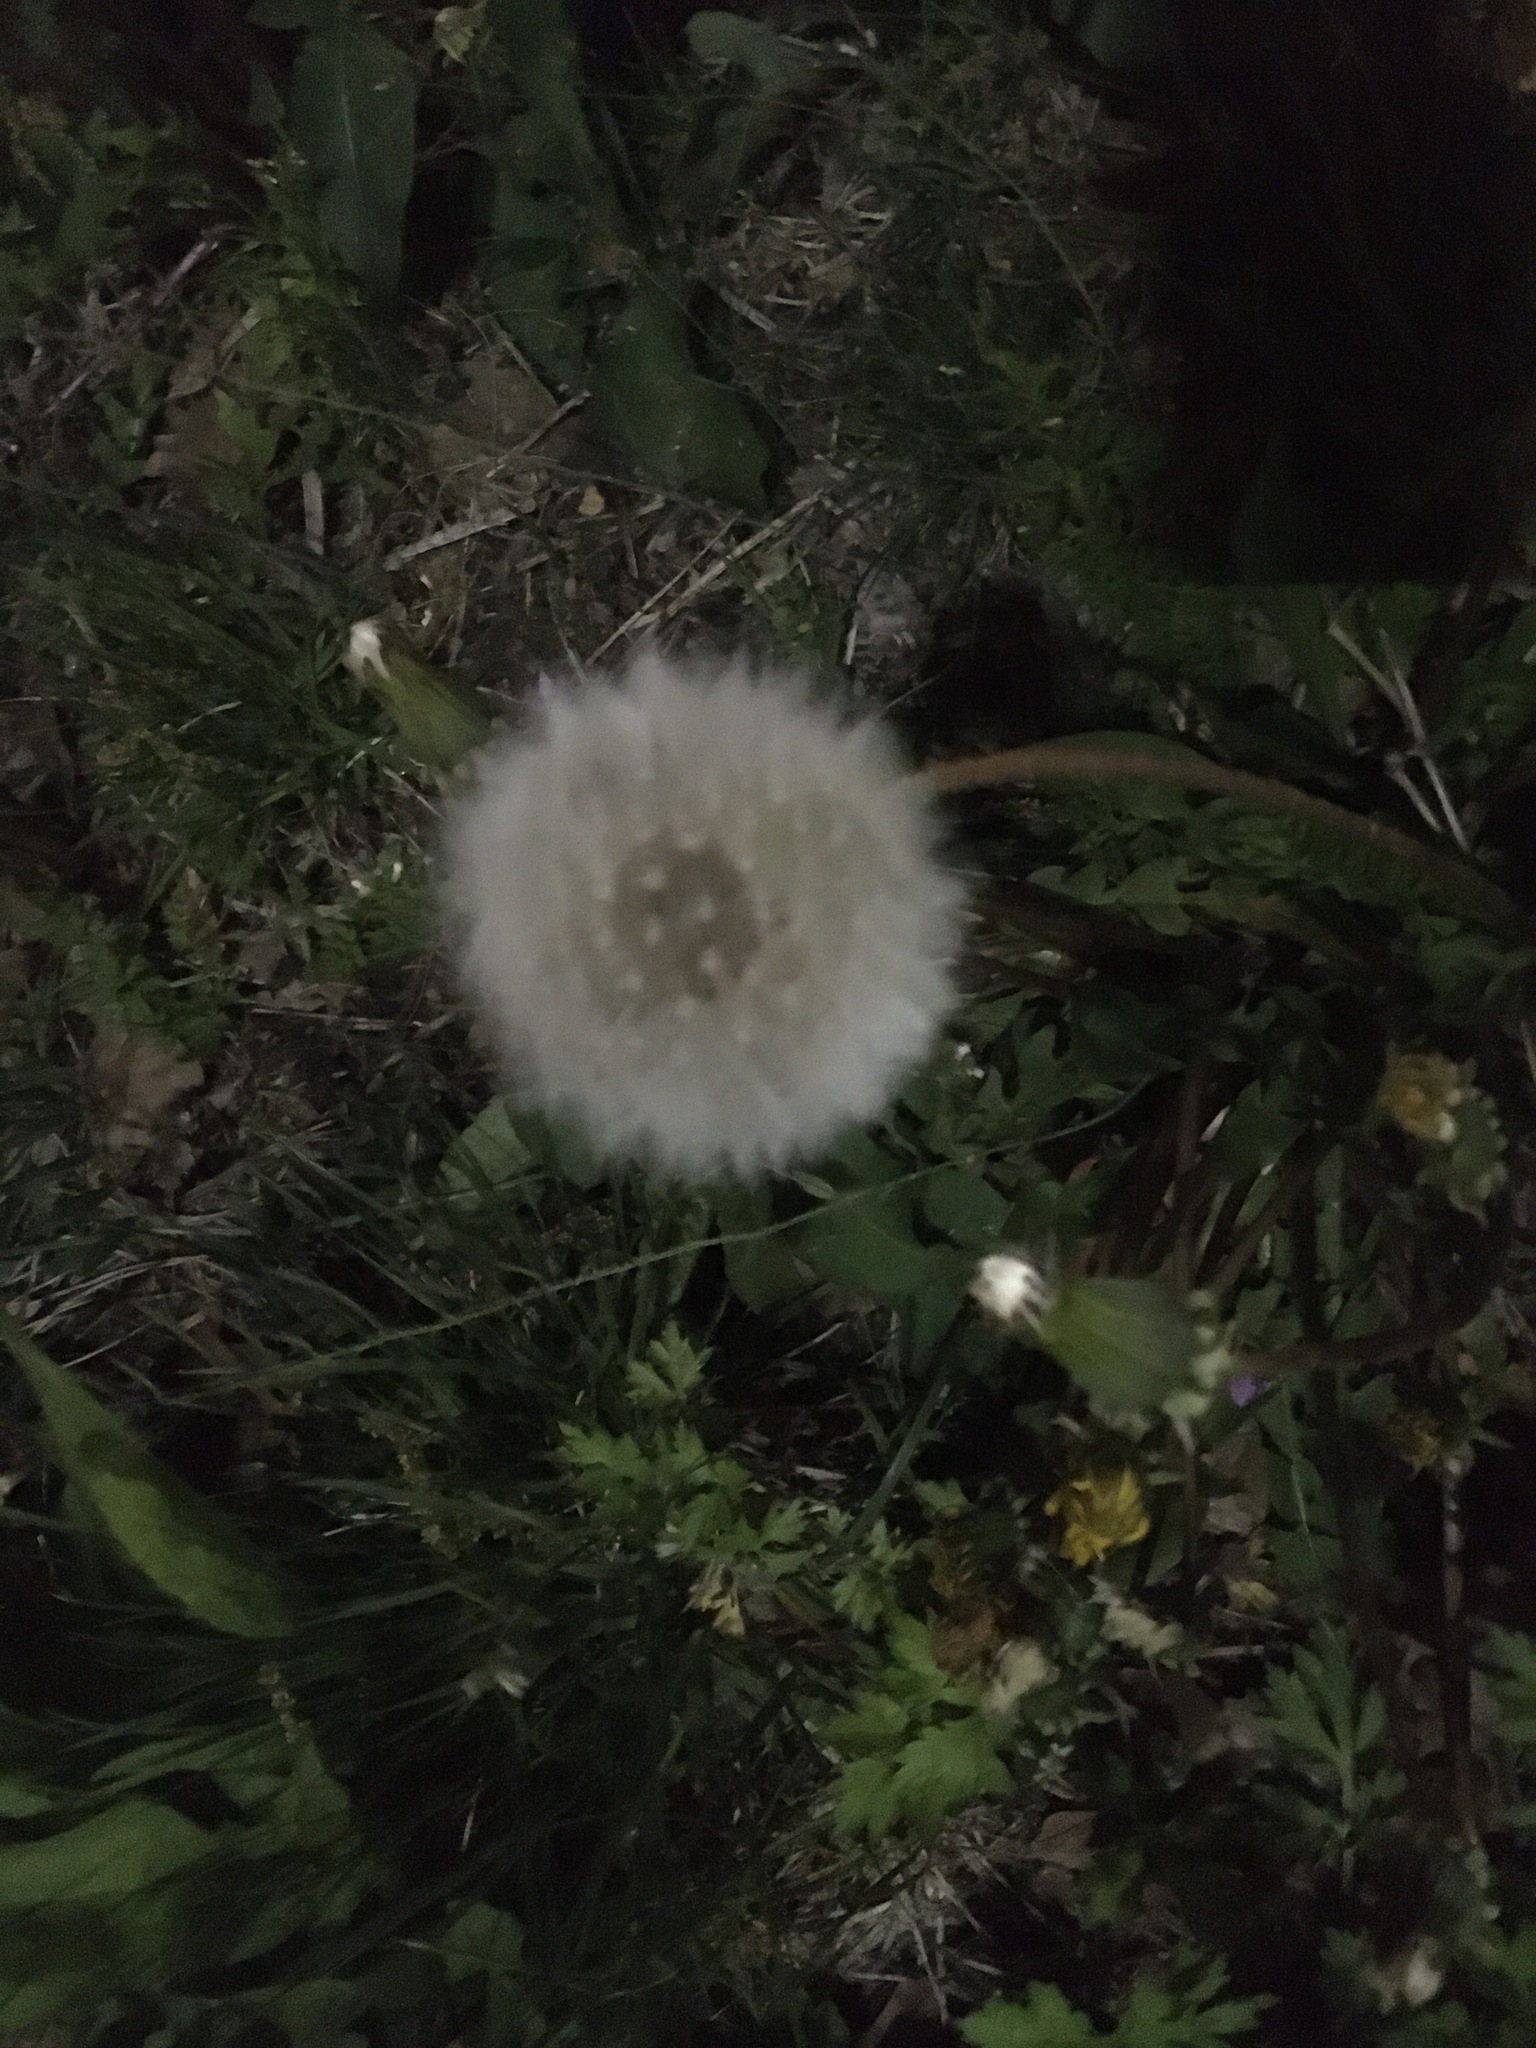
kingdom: Plantae
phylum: Tracheophyta
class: Magnoliopsida
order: Asterales
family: Asteraceae
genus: Taraxacum
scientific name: Taraxacum officinale
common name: Common dandelion
